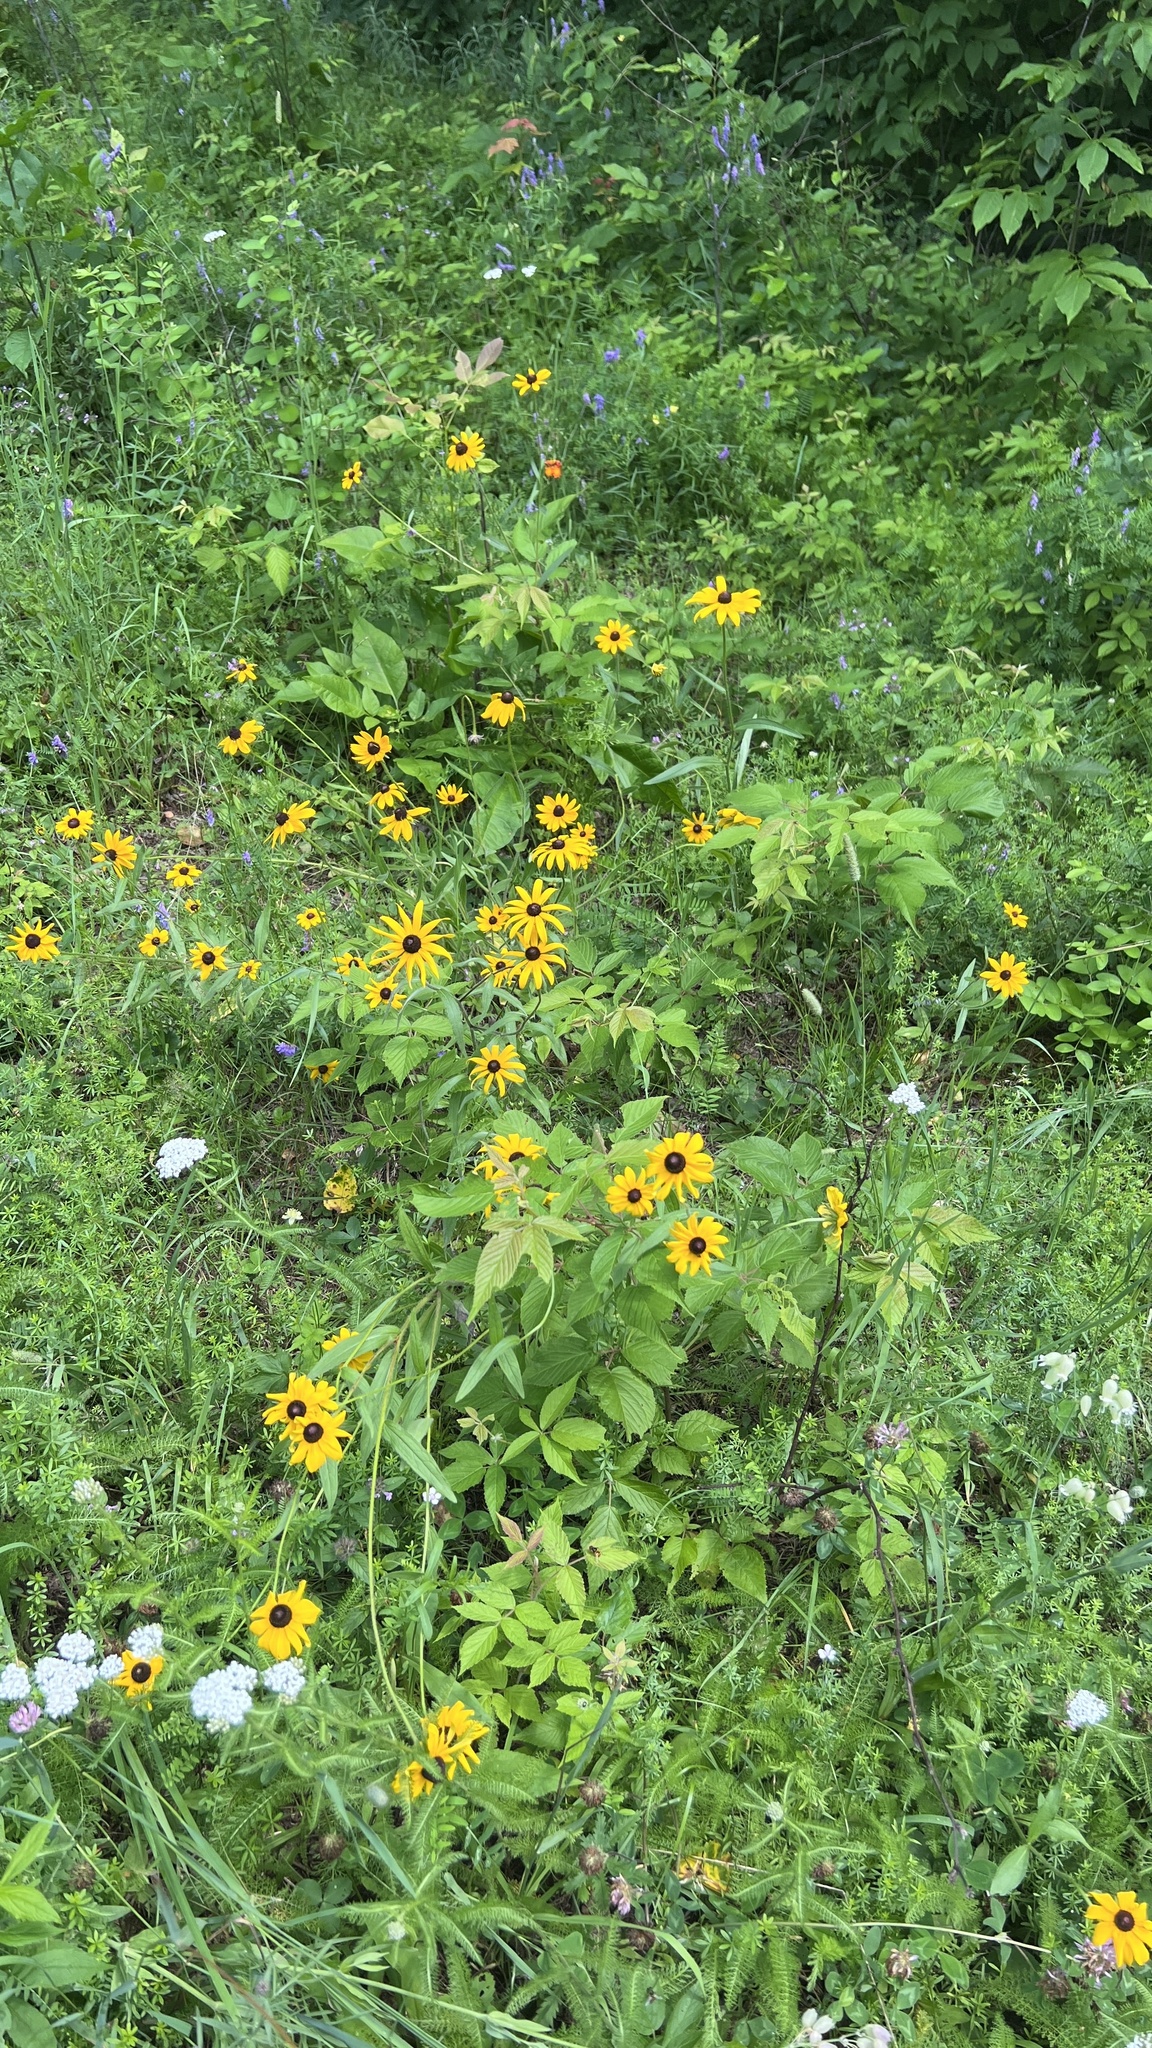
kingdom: Plantae
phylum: Tracheophyta
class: Magnoliopsida
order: Asterales
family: Asteraceae
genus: Rudbeckia
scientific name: Rudbeckia hirta
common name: Black-eyed-susan
